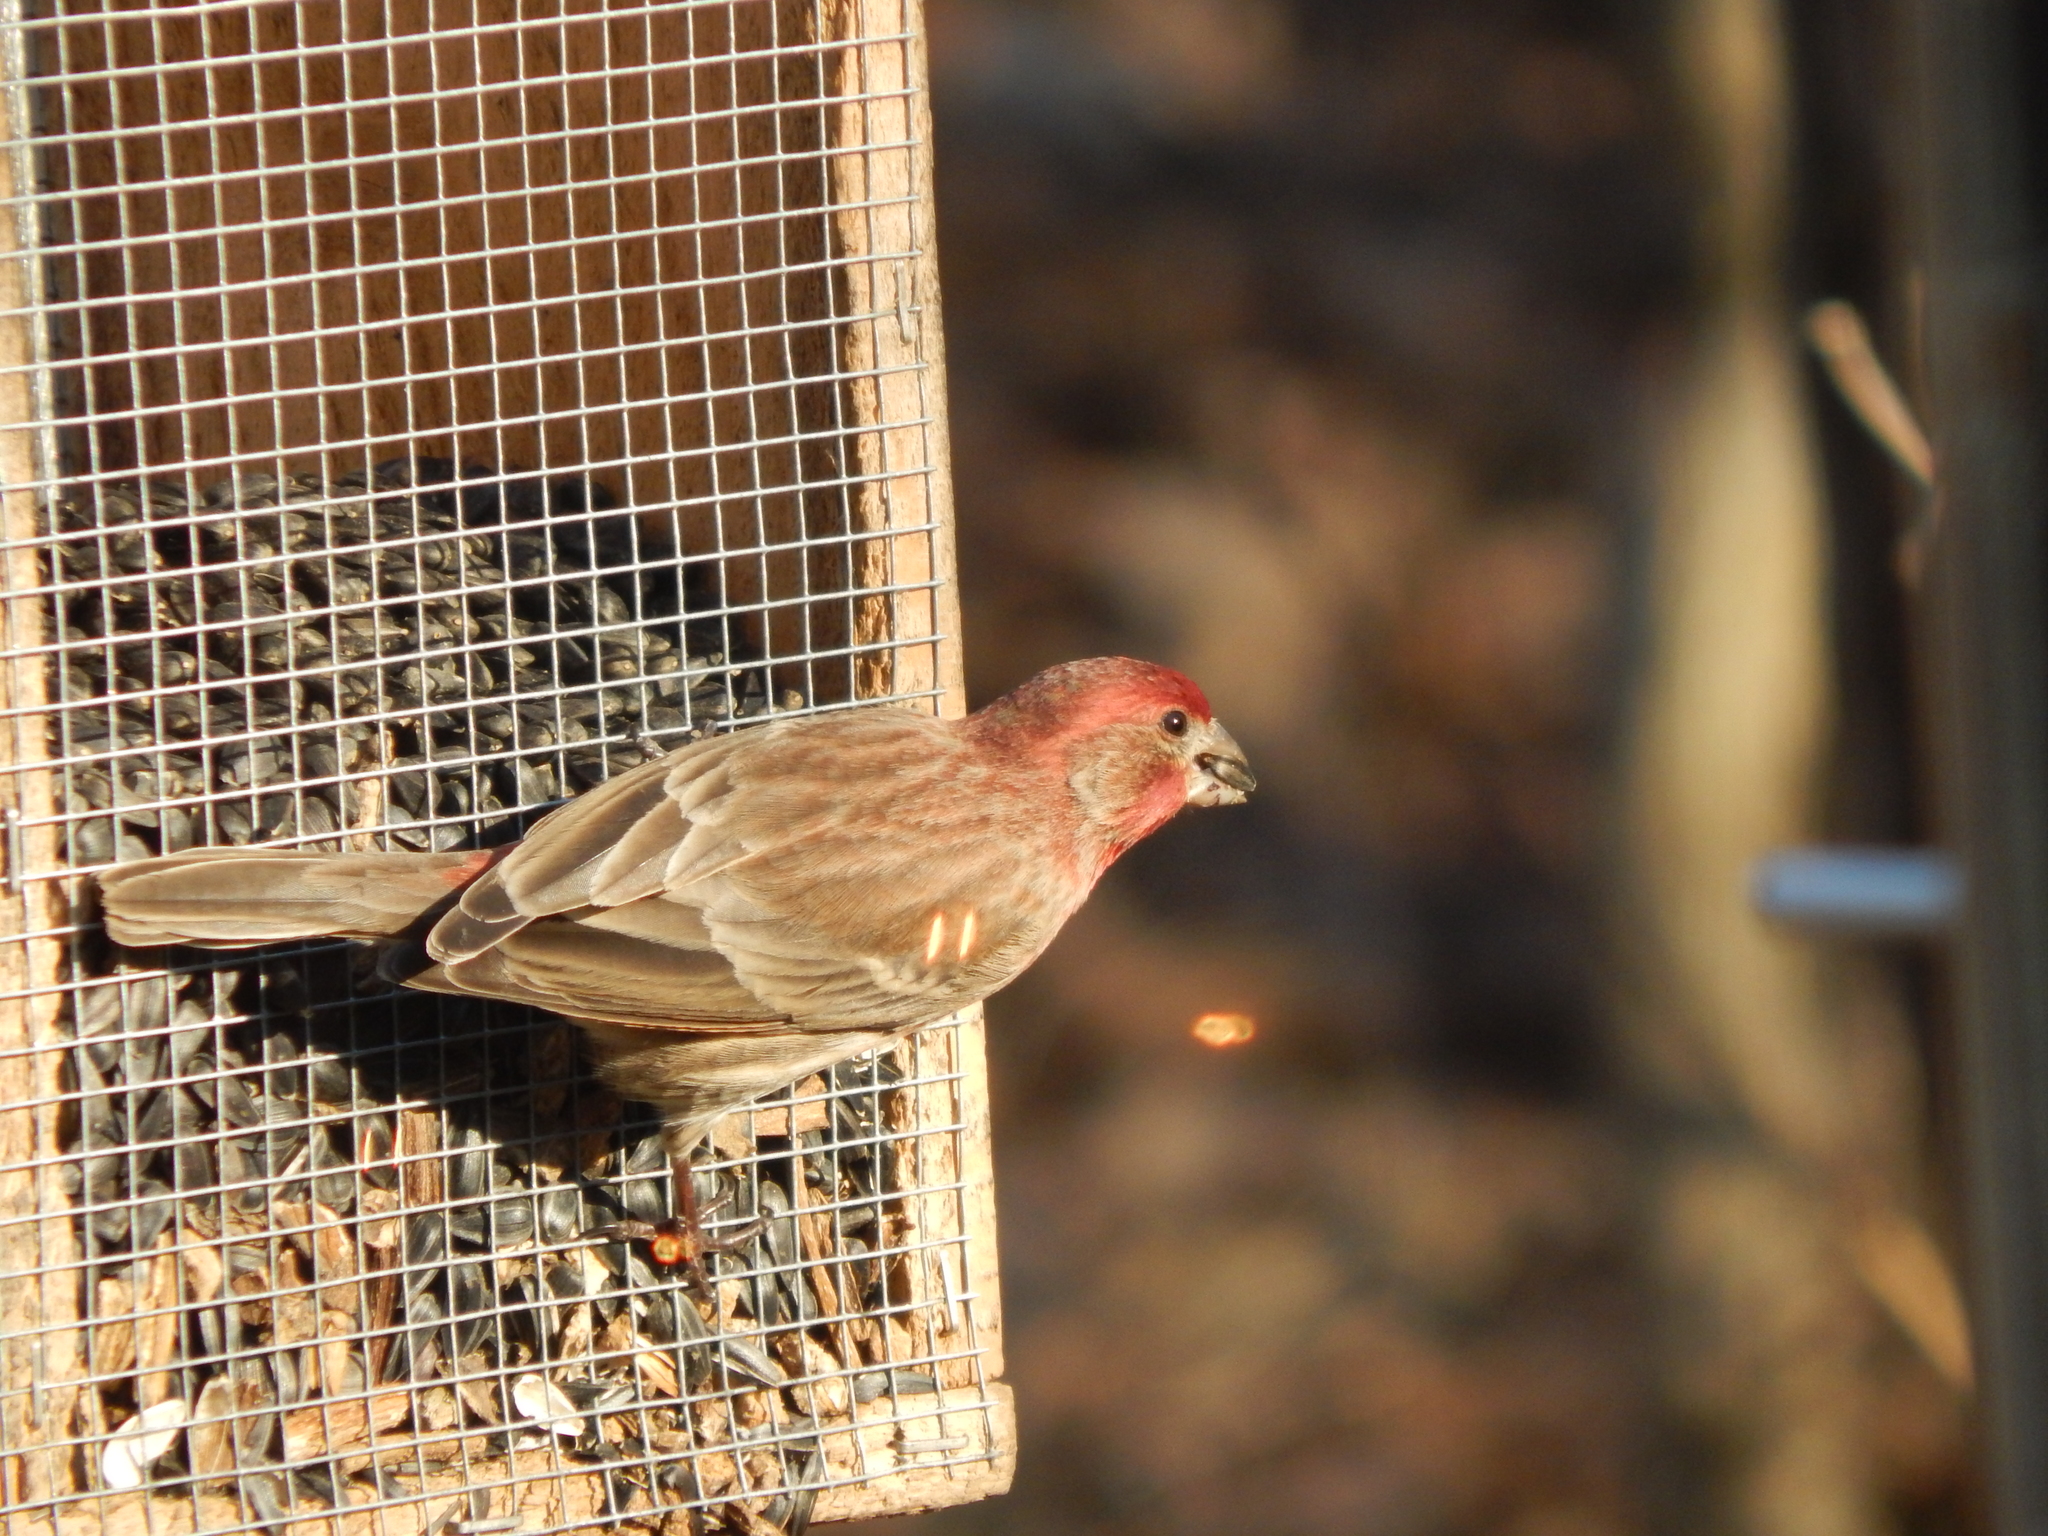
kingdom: Animalia
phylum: Chordata
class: Aves
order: Passeriformes
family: Fringillidae
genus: Haemorhous
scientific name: Haemorhous mexicanus
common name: House finch
